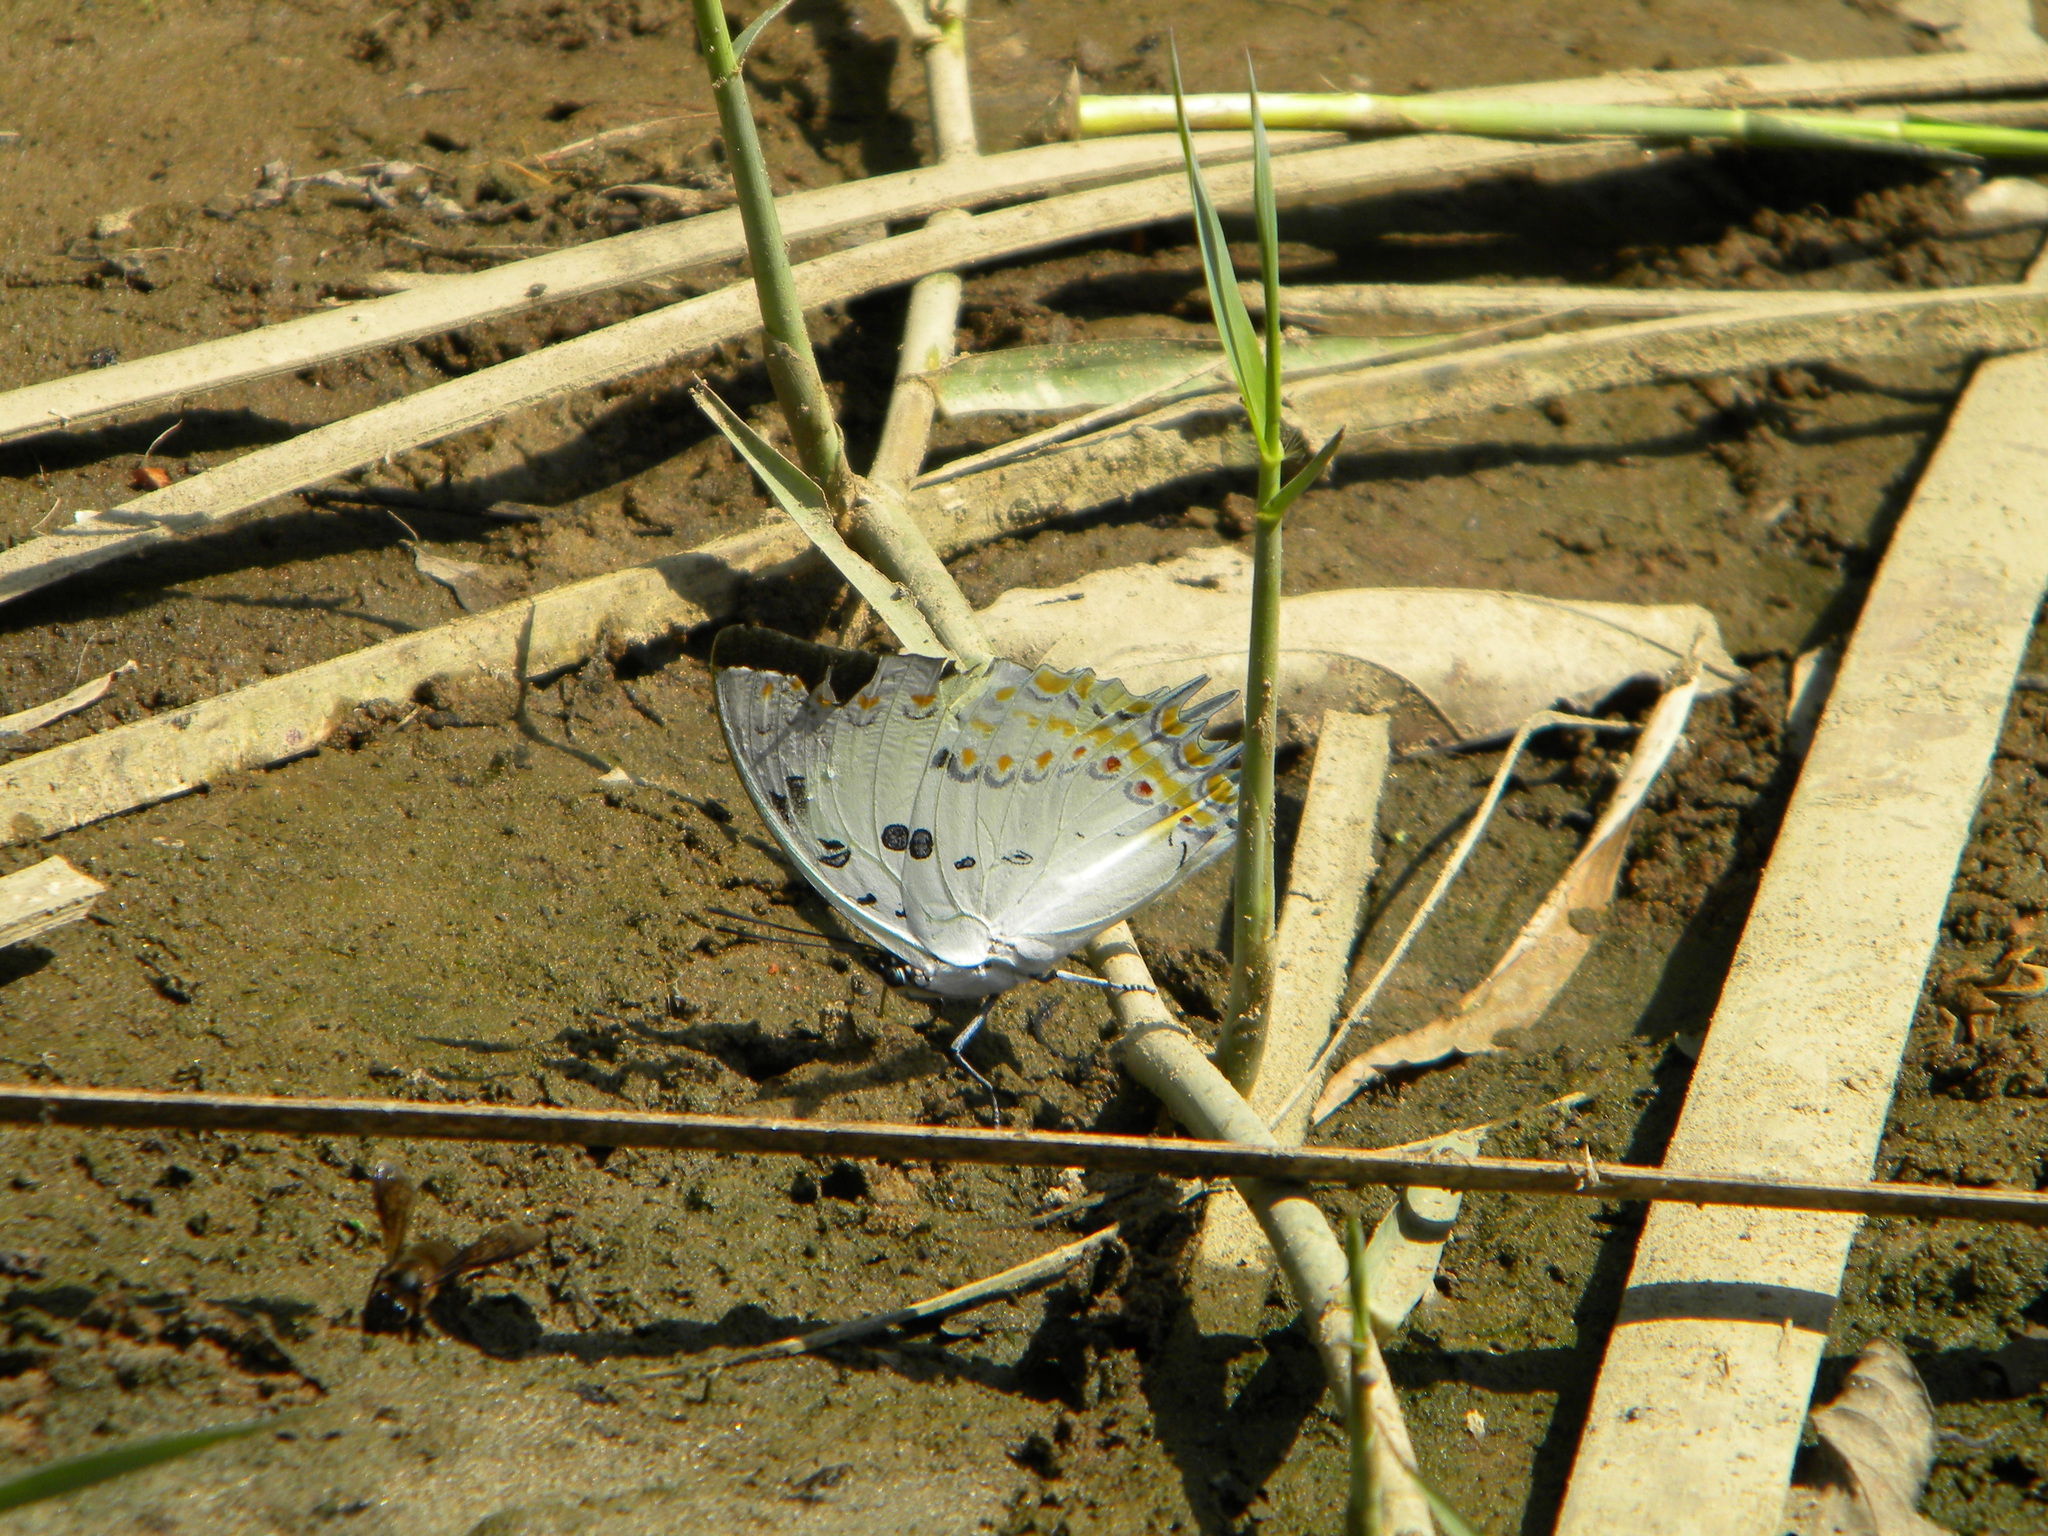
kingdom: Animalia
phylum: Arthropoda
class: Insecta
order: Lepidoptera
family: Nymphalidae
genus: Polyura
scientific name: Polyura delphis
